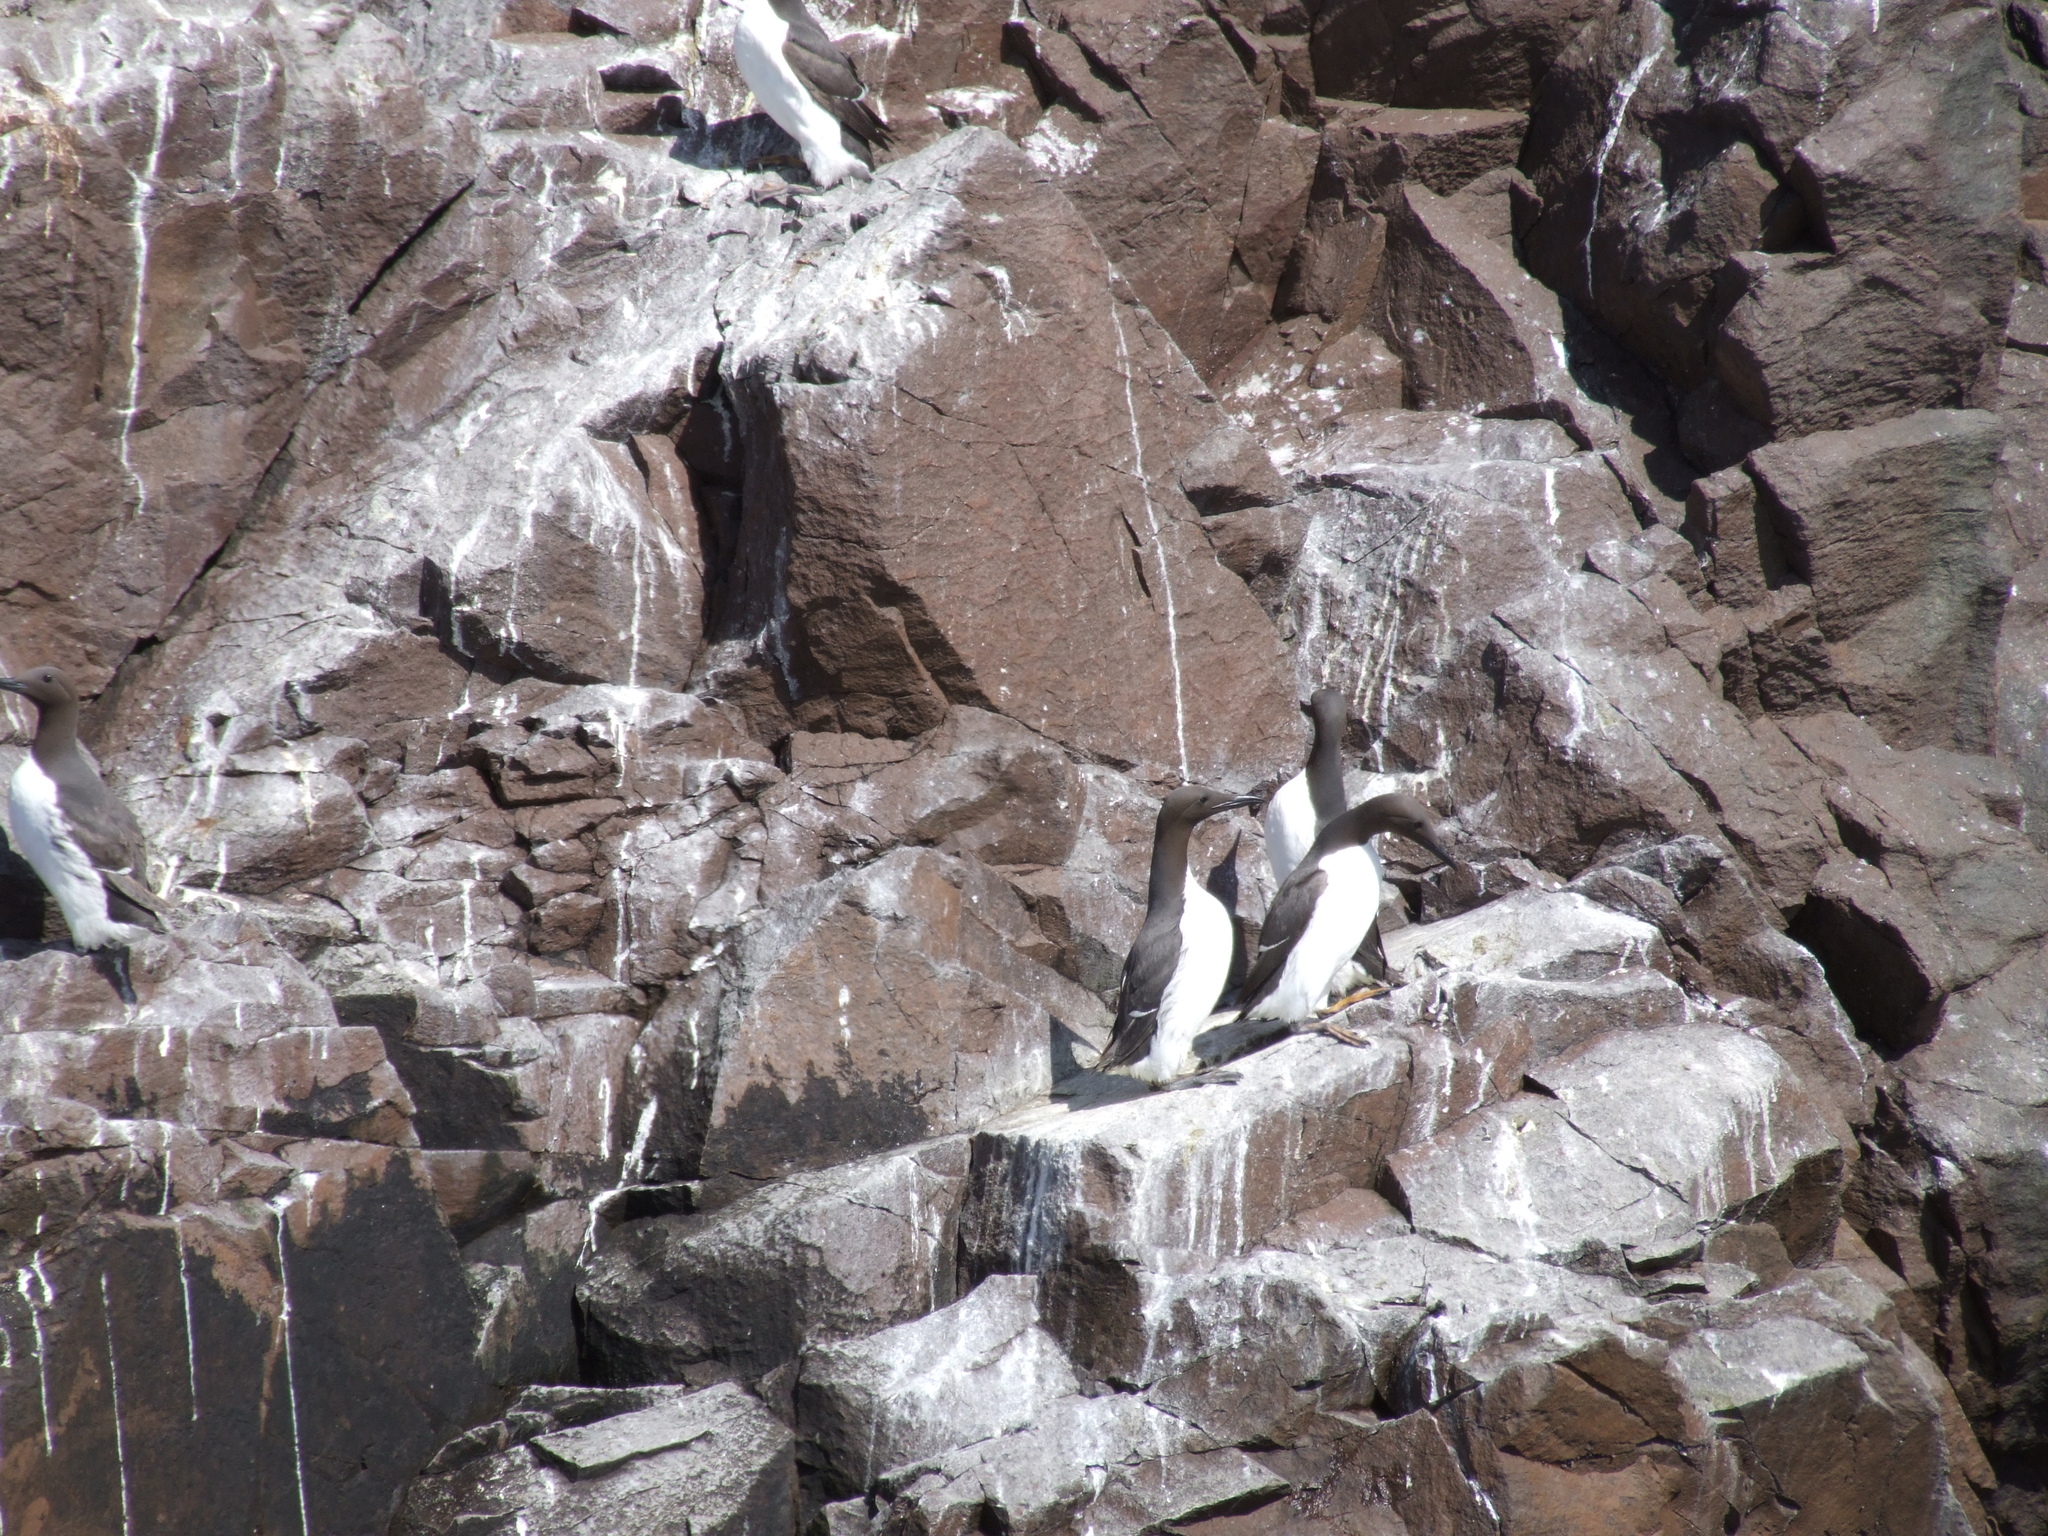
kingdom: Animalia
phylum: Chordata
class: Aves
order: Charadriiformes
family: Alcidae
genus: Uria
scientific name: Uria aalge
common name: Common murre
